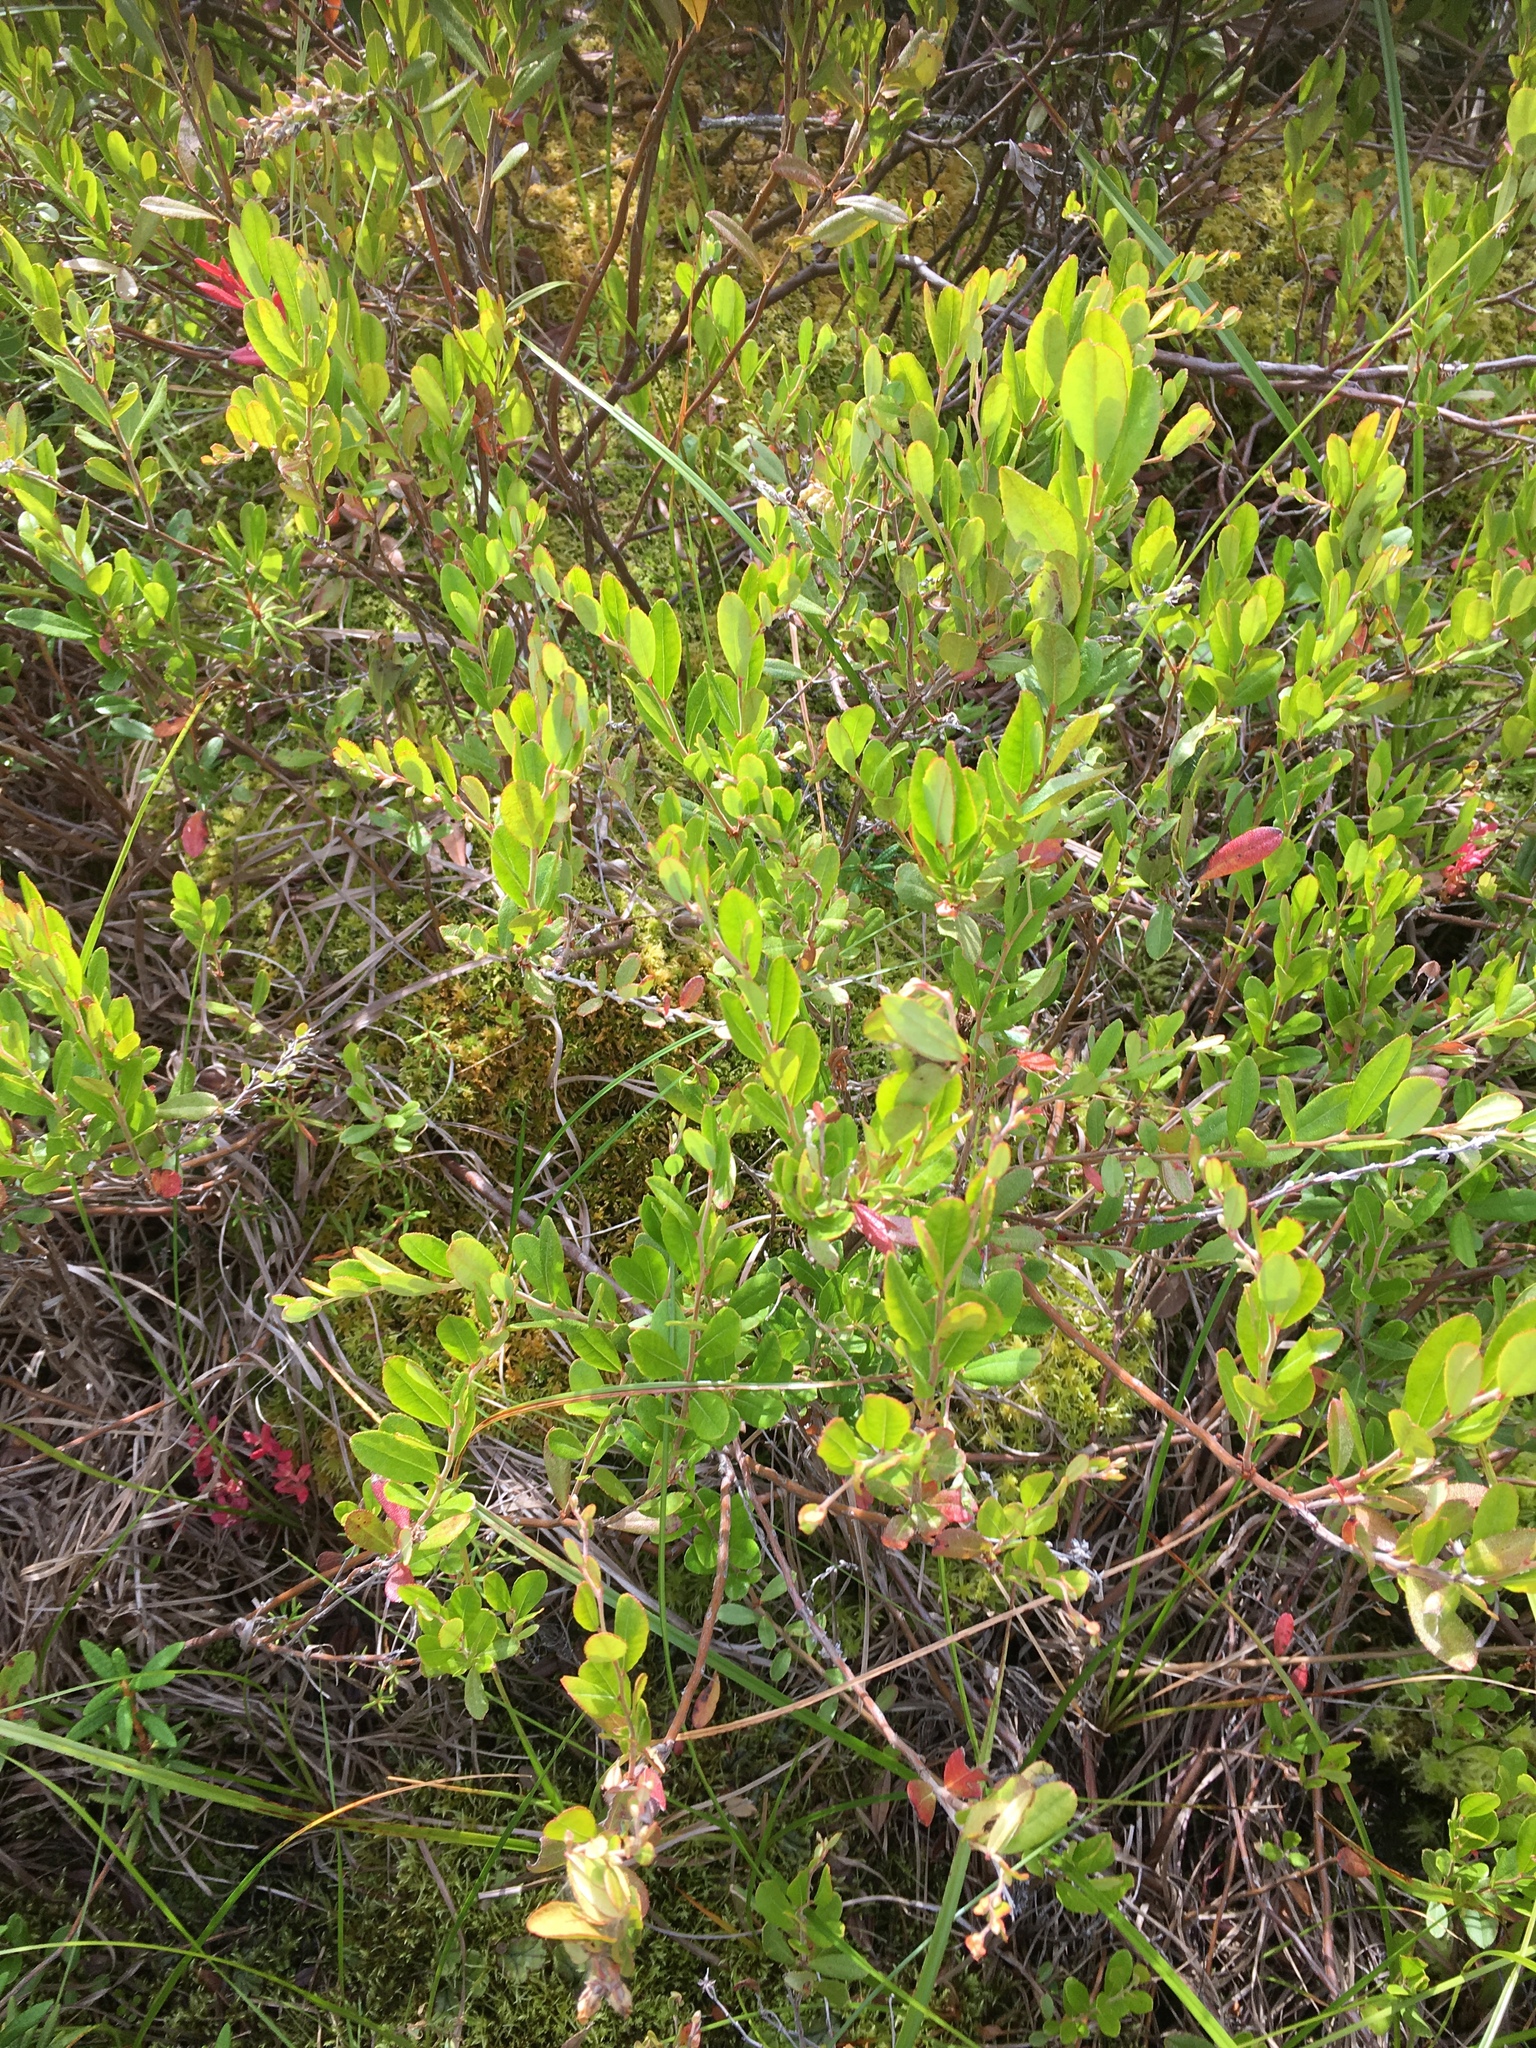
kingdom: Plantae
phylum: Tracheophyta
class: Magnoliopsida
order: Ericales
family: Ericaceae
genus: Chamaedaphne
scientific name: Chamaedaphne calyculata
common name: Leatherleaf
